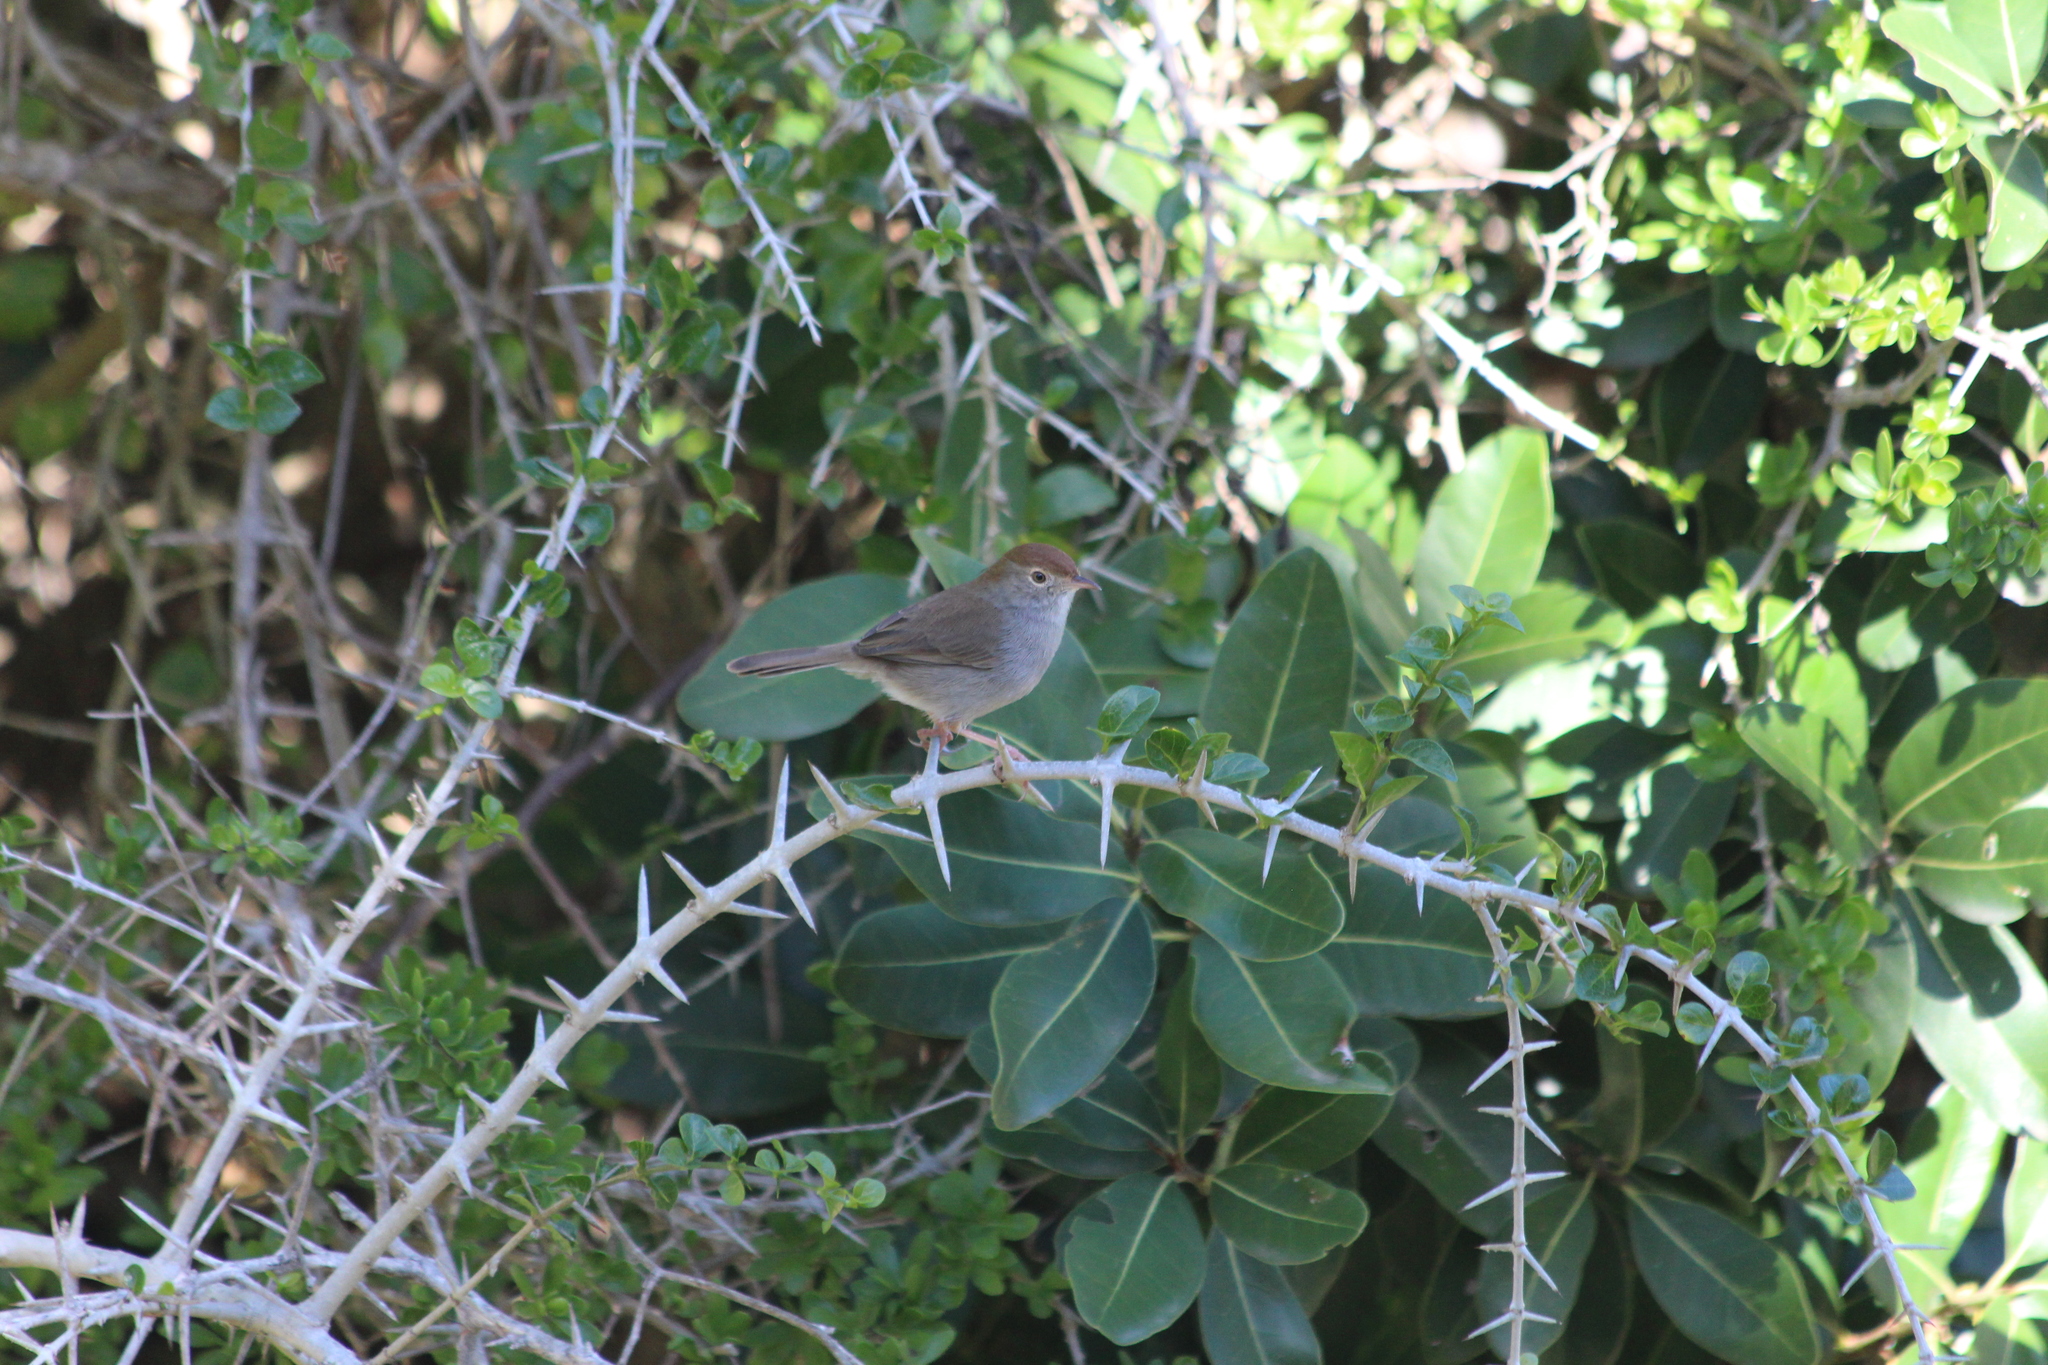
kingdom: Animalia
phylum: Chordata
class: Aves
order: Passeriformes
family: Cisticolidae
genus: Cisticola
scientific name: Cisticola fulvicapilla
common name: Neddicky
